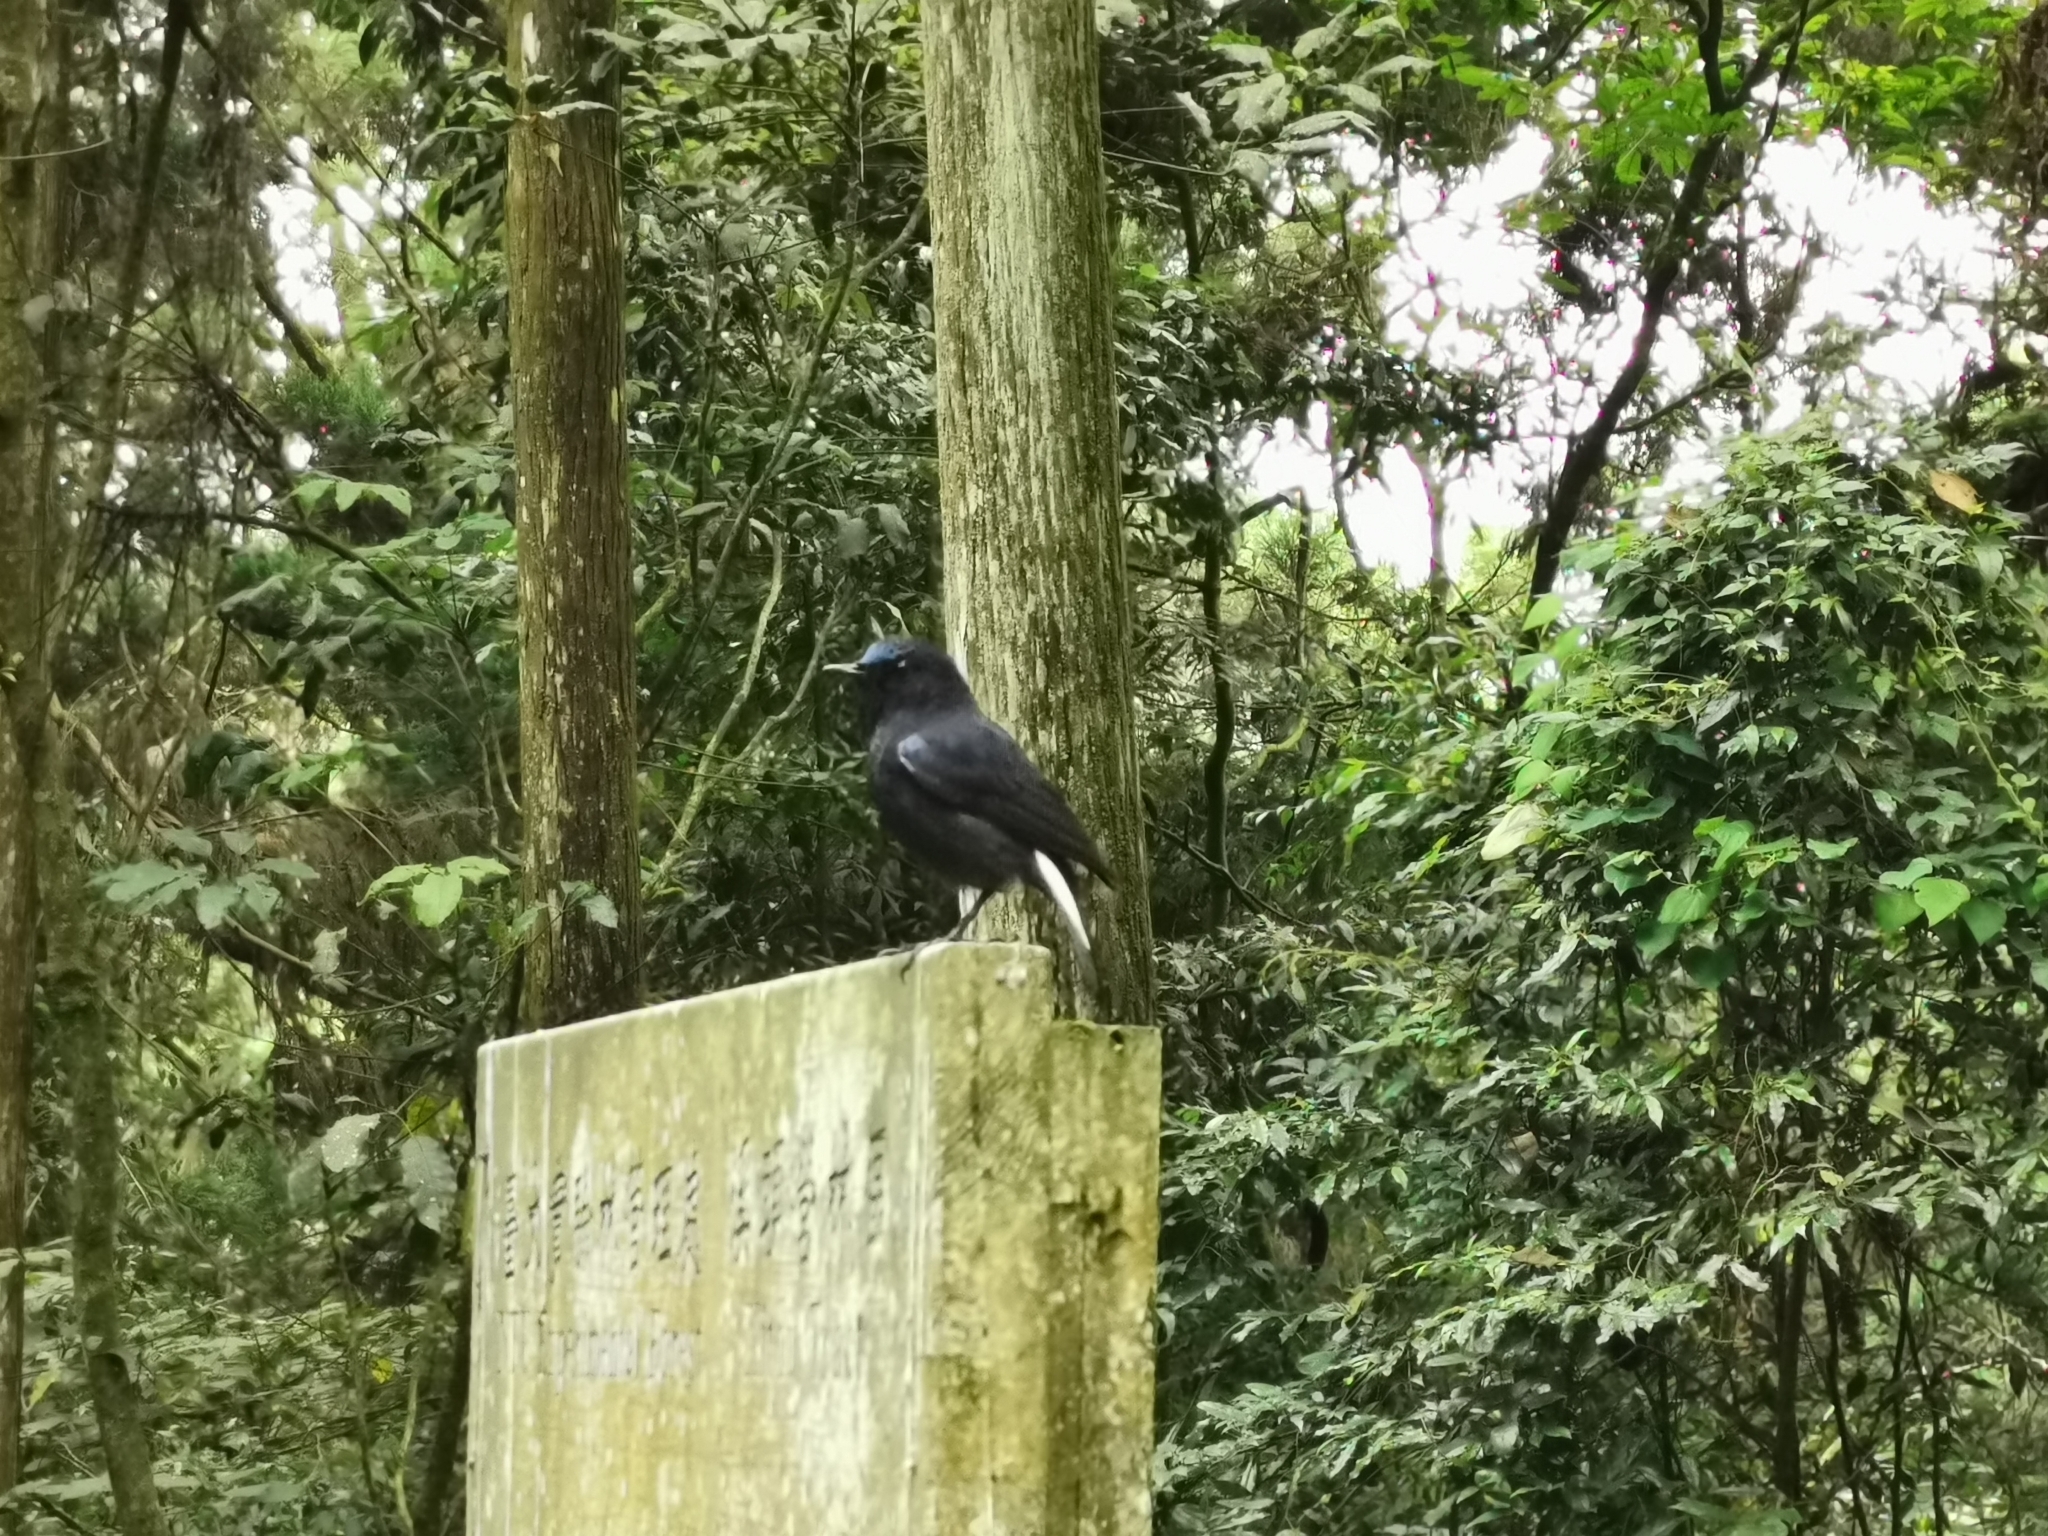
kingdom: Animalia
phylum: Chordata
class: Aves
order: Passeriformes
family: Muscicapidae
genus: Myiomela
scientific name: Myiomela leucura
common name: White-tailed robin
